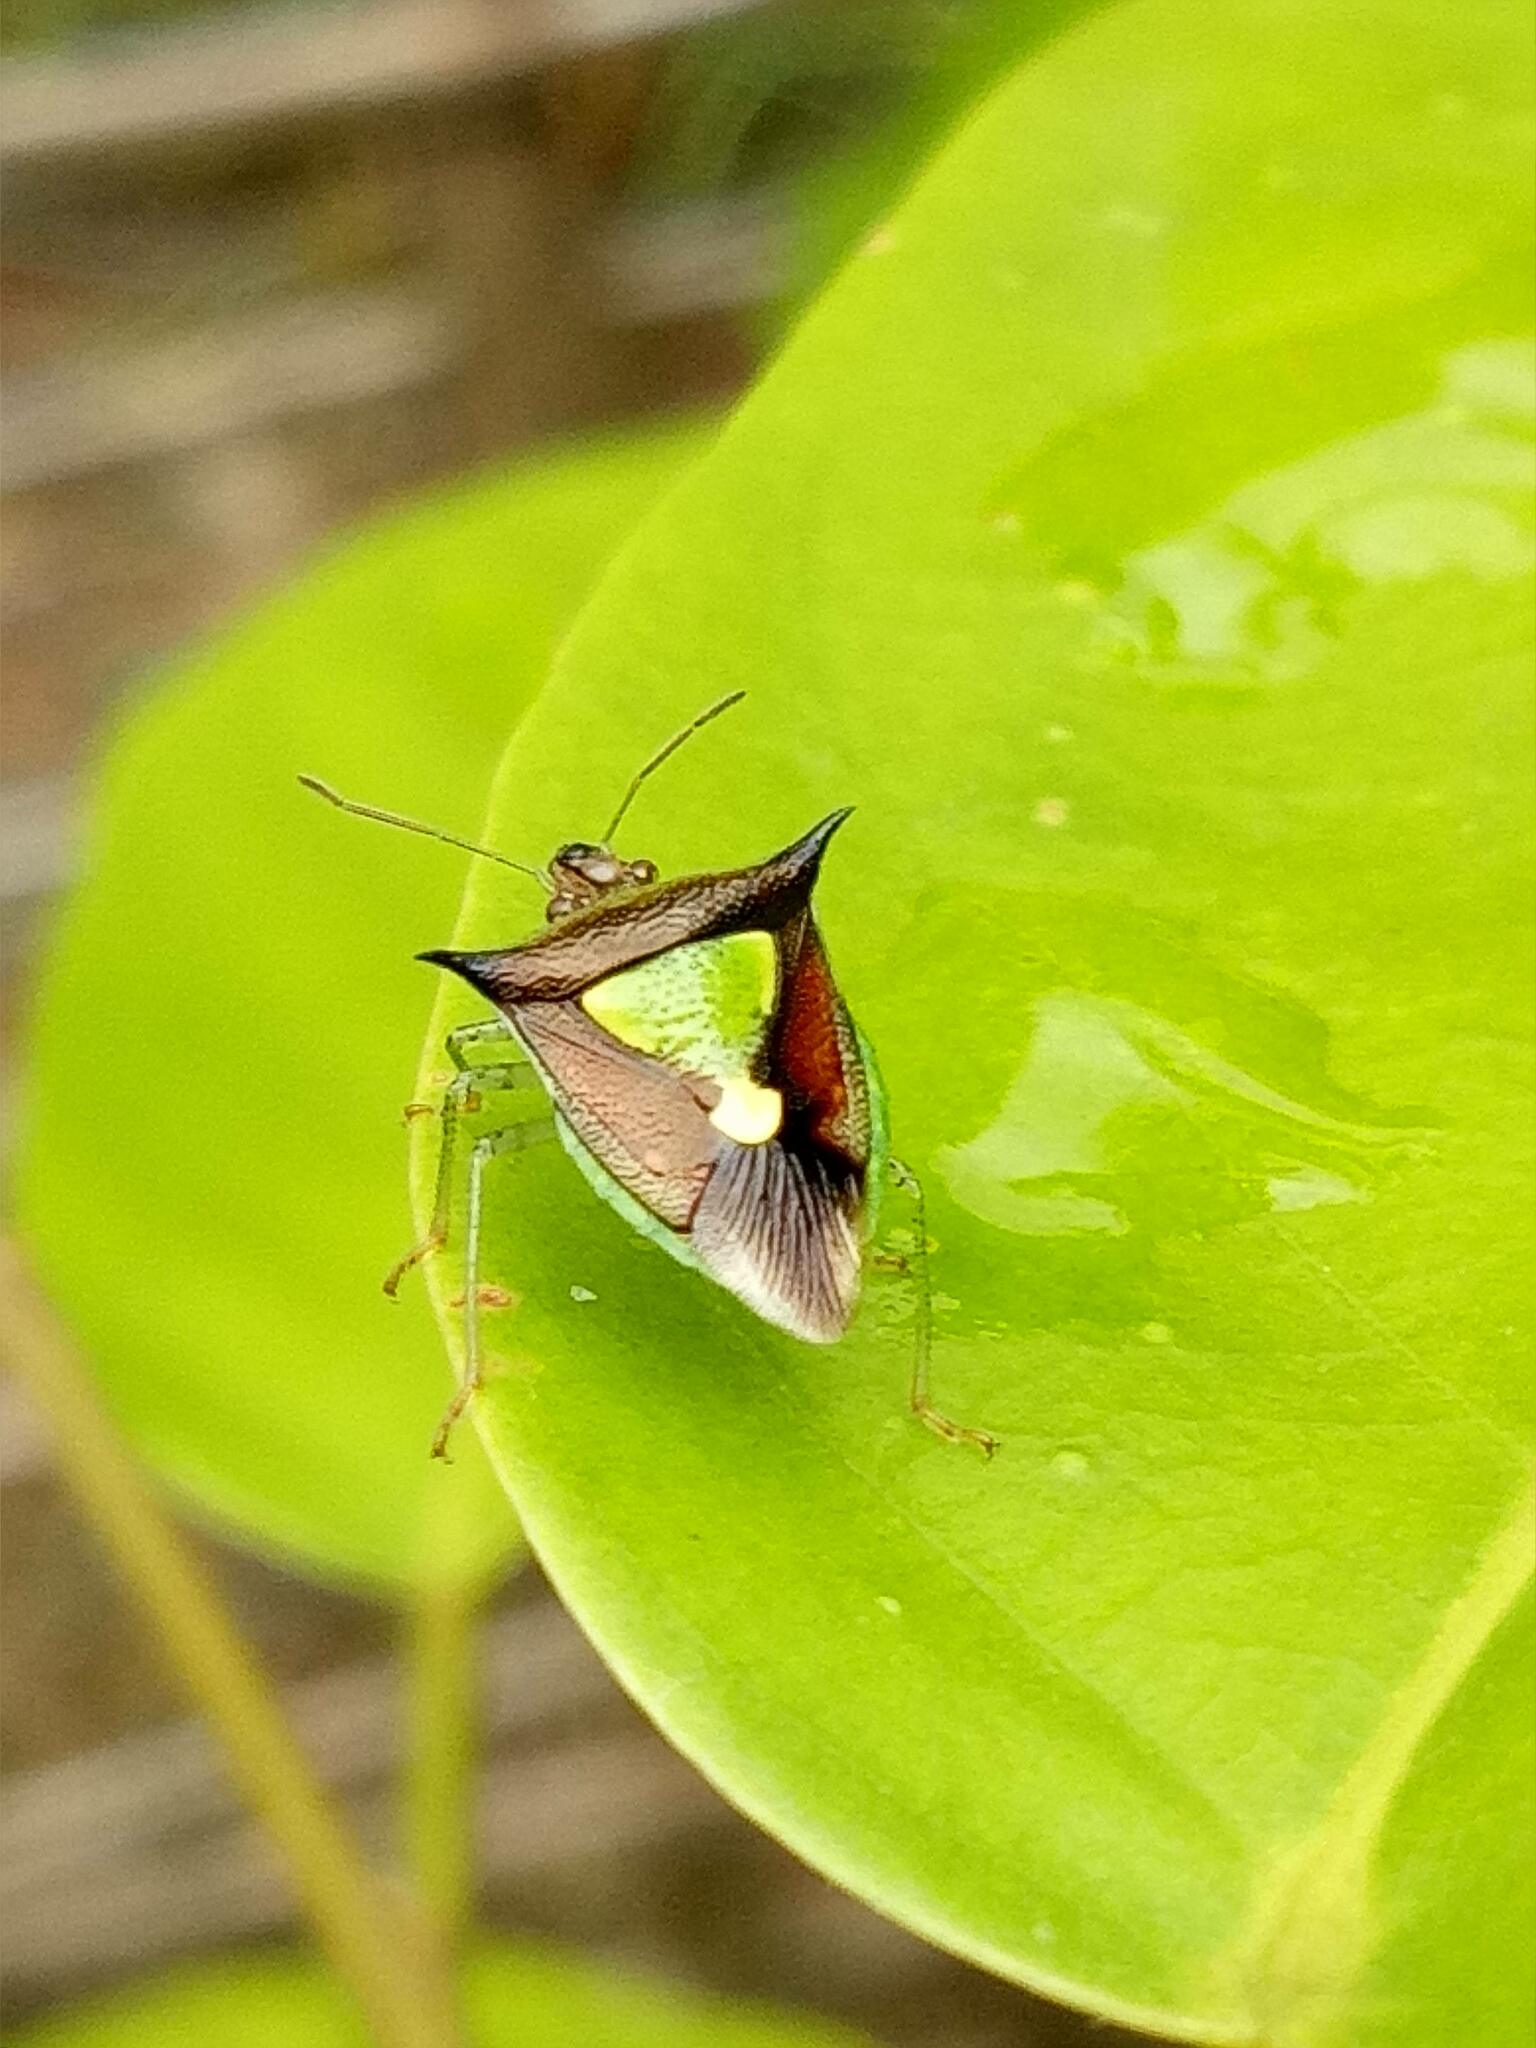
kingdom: Animalia
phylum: Arthropoda
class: Insecta
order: Hemiptera
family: Pentatomidae
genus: Carbula
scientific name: Carbula scutellata
